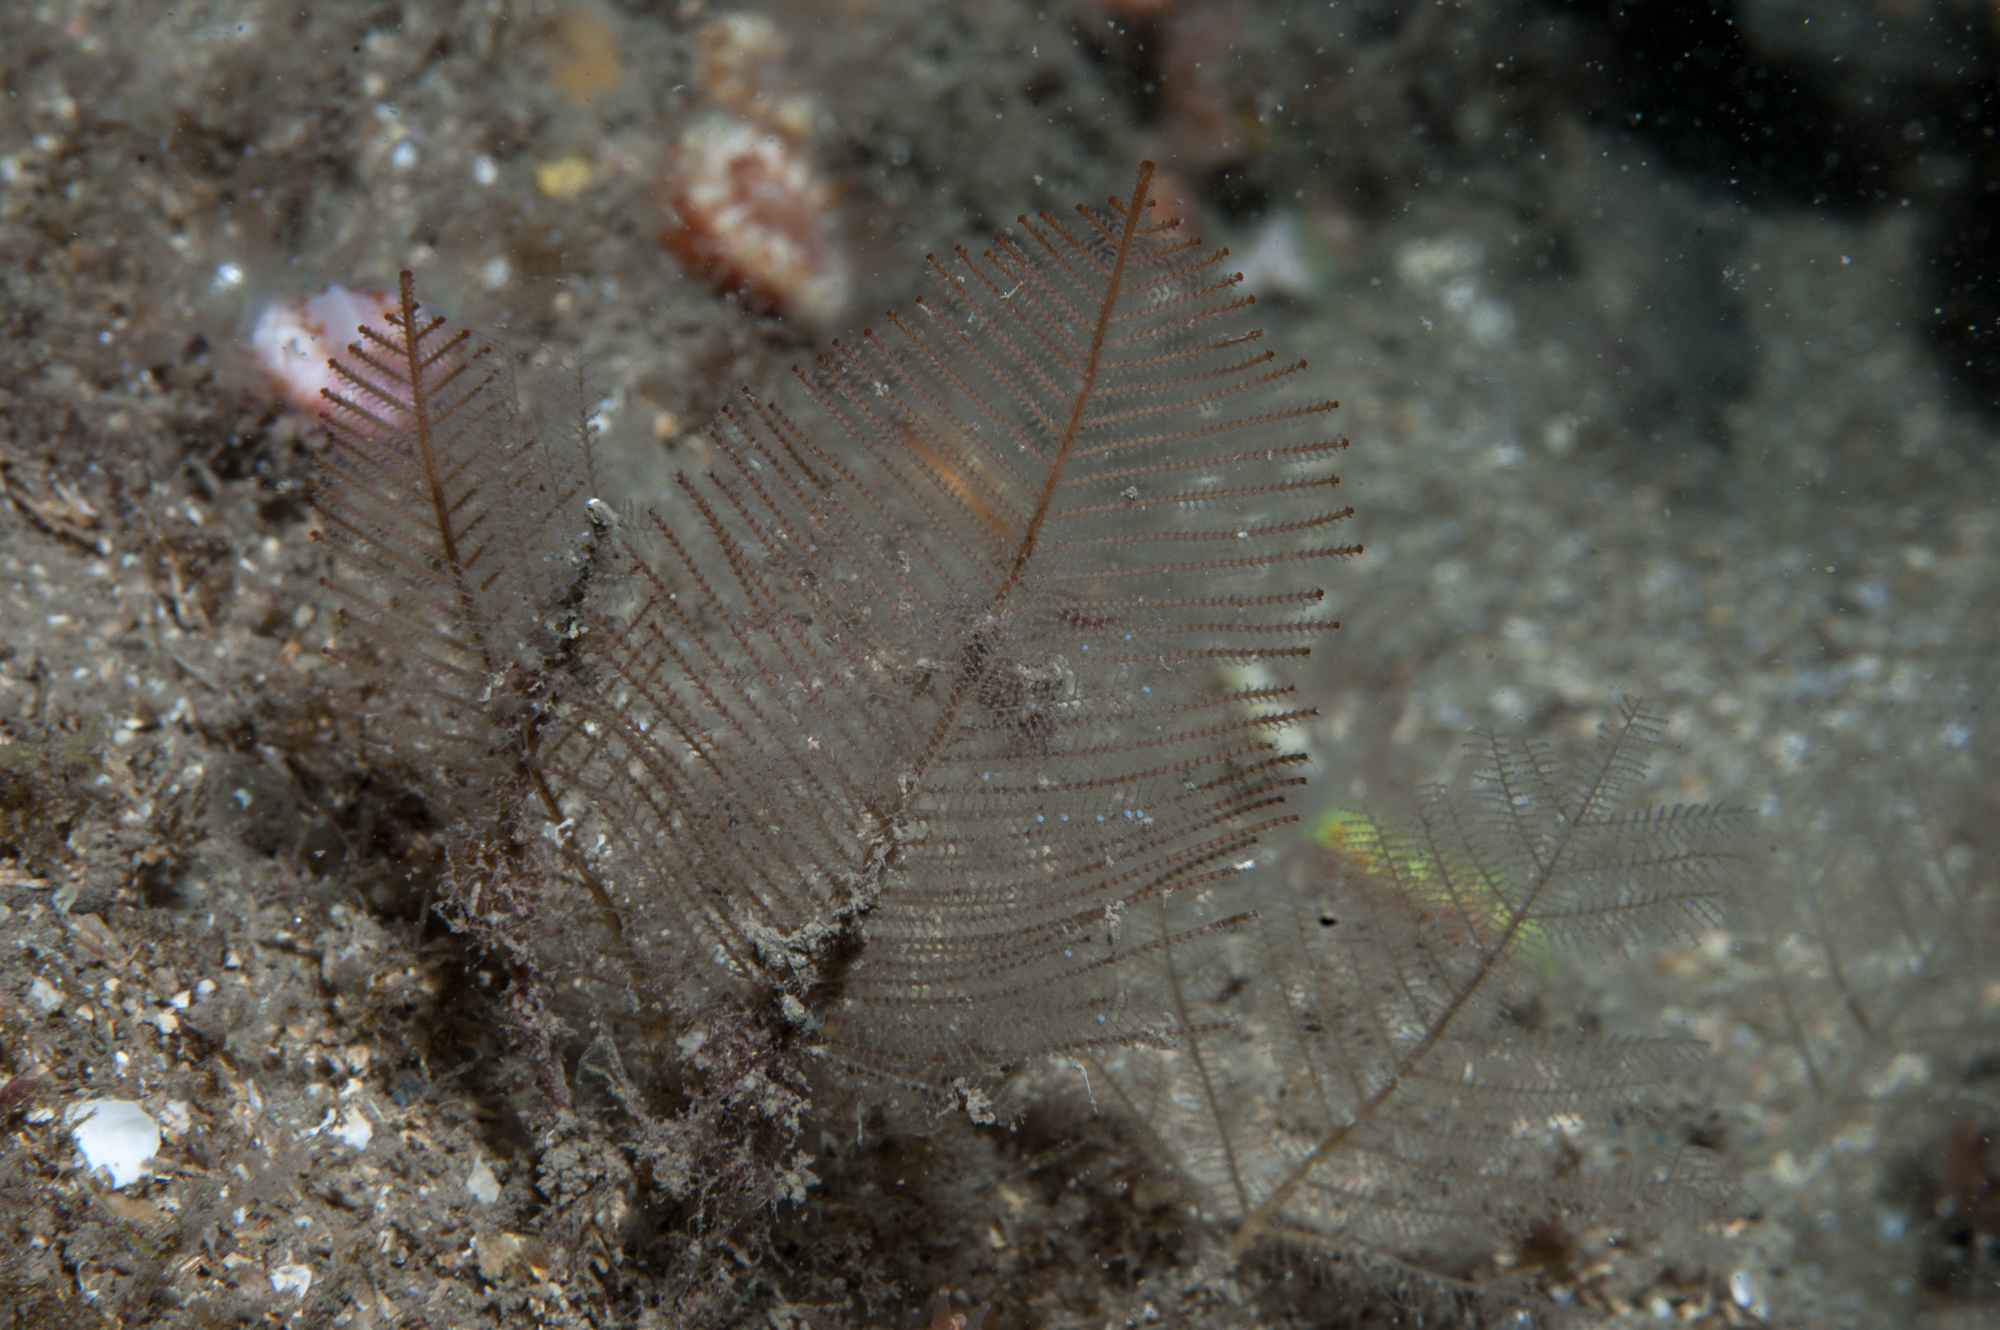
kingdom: Animalia
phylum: Cnidaria
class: Hydrozoa
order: Leptothecata
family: Sertulariidae
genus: Diphasia
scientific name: Diphasia alata
